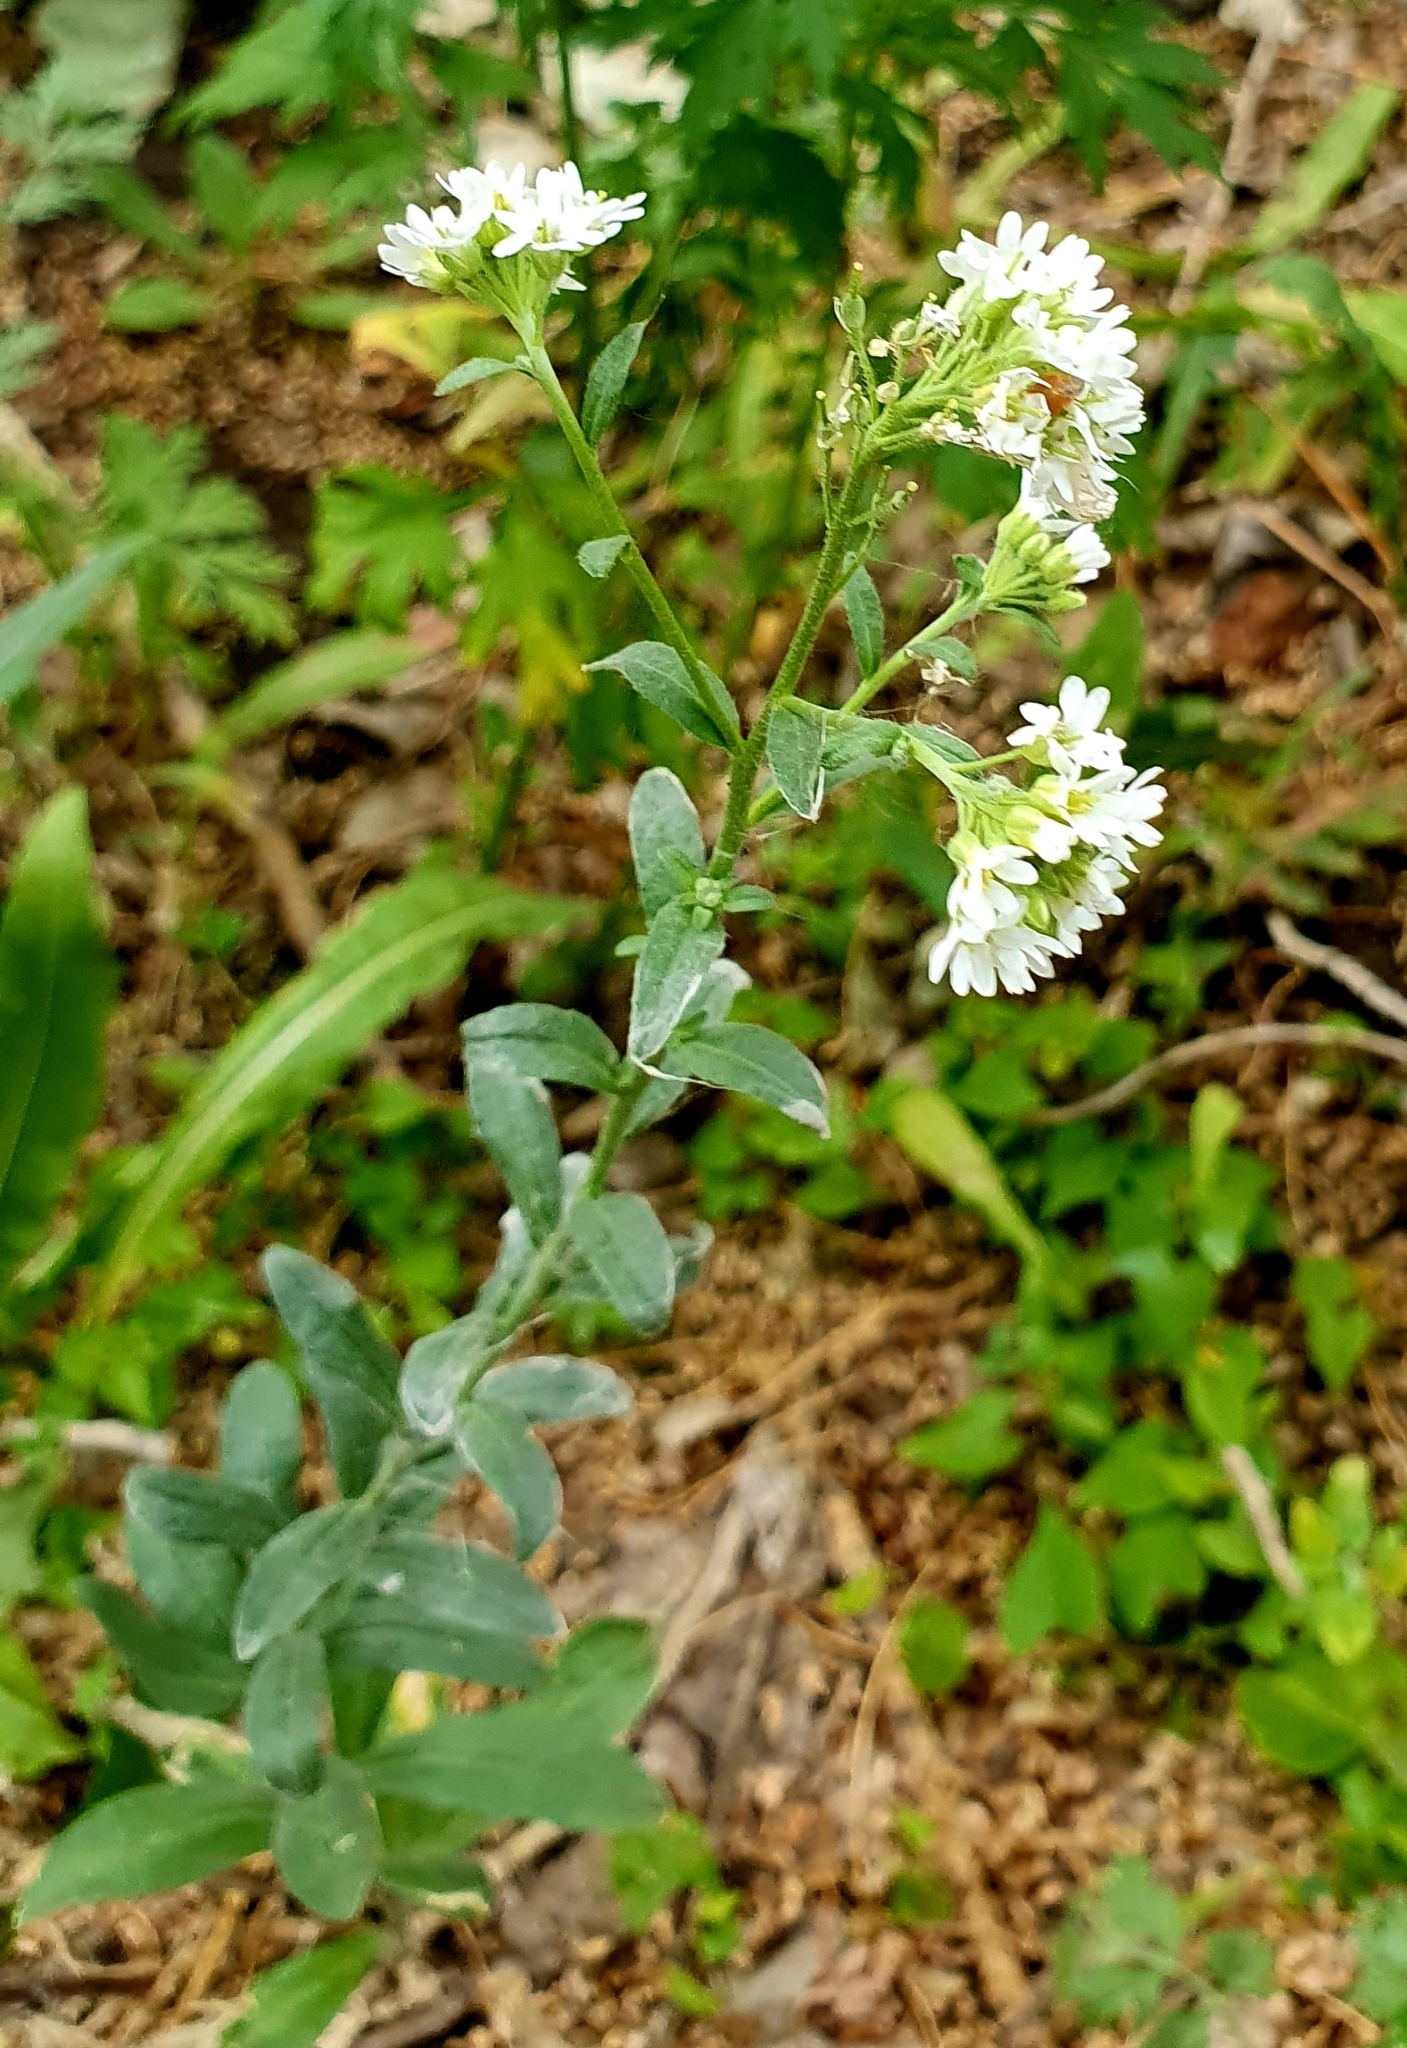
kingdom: Plantae
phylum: Tracheophyta
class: Magnoliopsida
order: Brassicales
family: Brassicaceae
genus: Berteroa
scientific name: Berteroa incana
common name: Hoary alison
